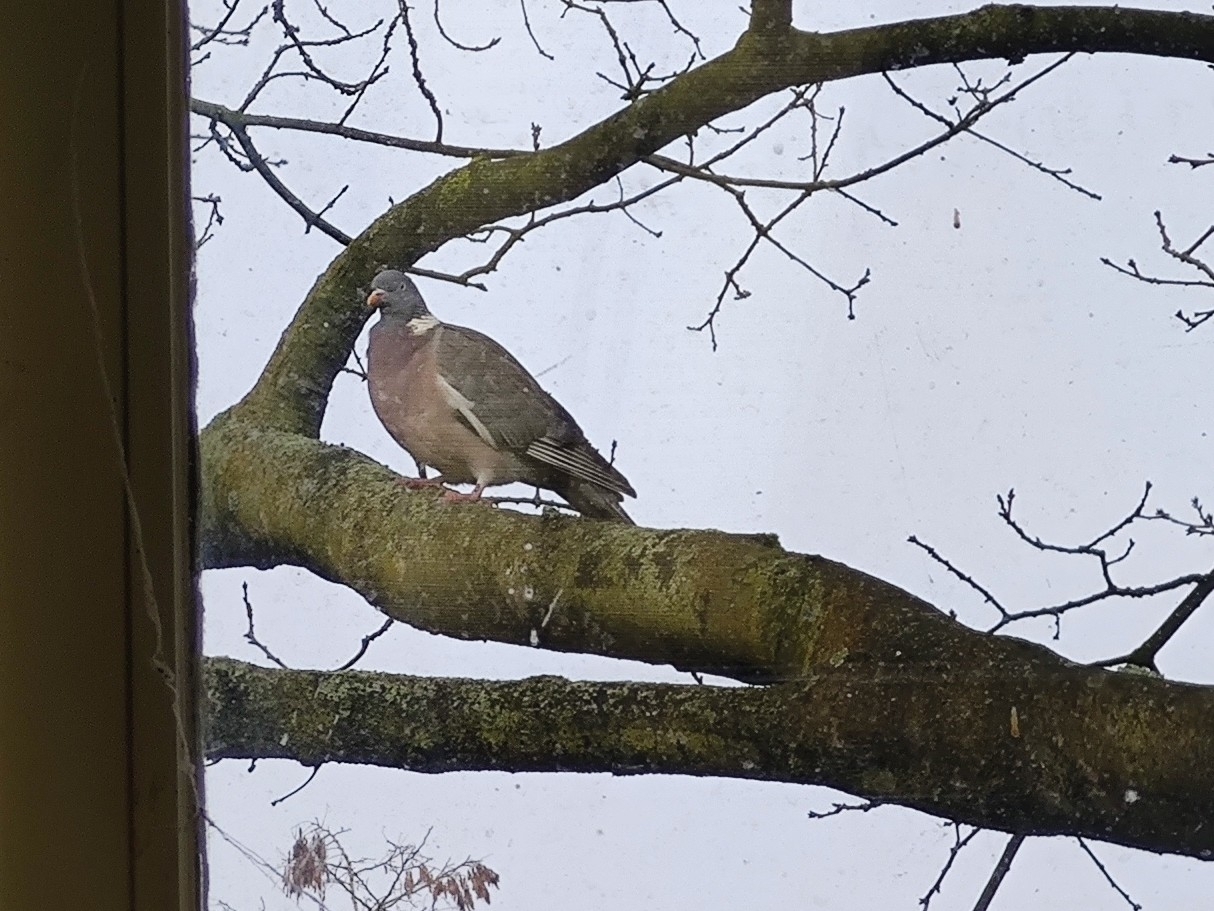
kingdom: Animalia
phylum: Chordata
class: Aves
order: Columbiformes
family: Columbidae
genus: Columba
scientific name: Columba palumbus
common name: Common wood pigeon
